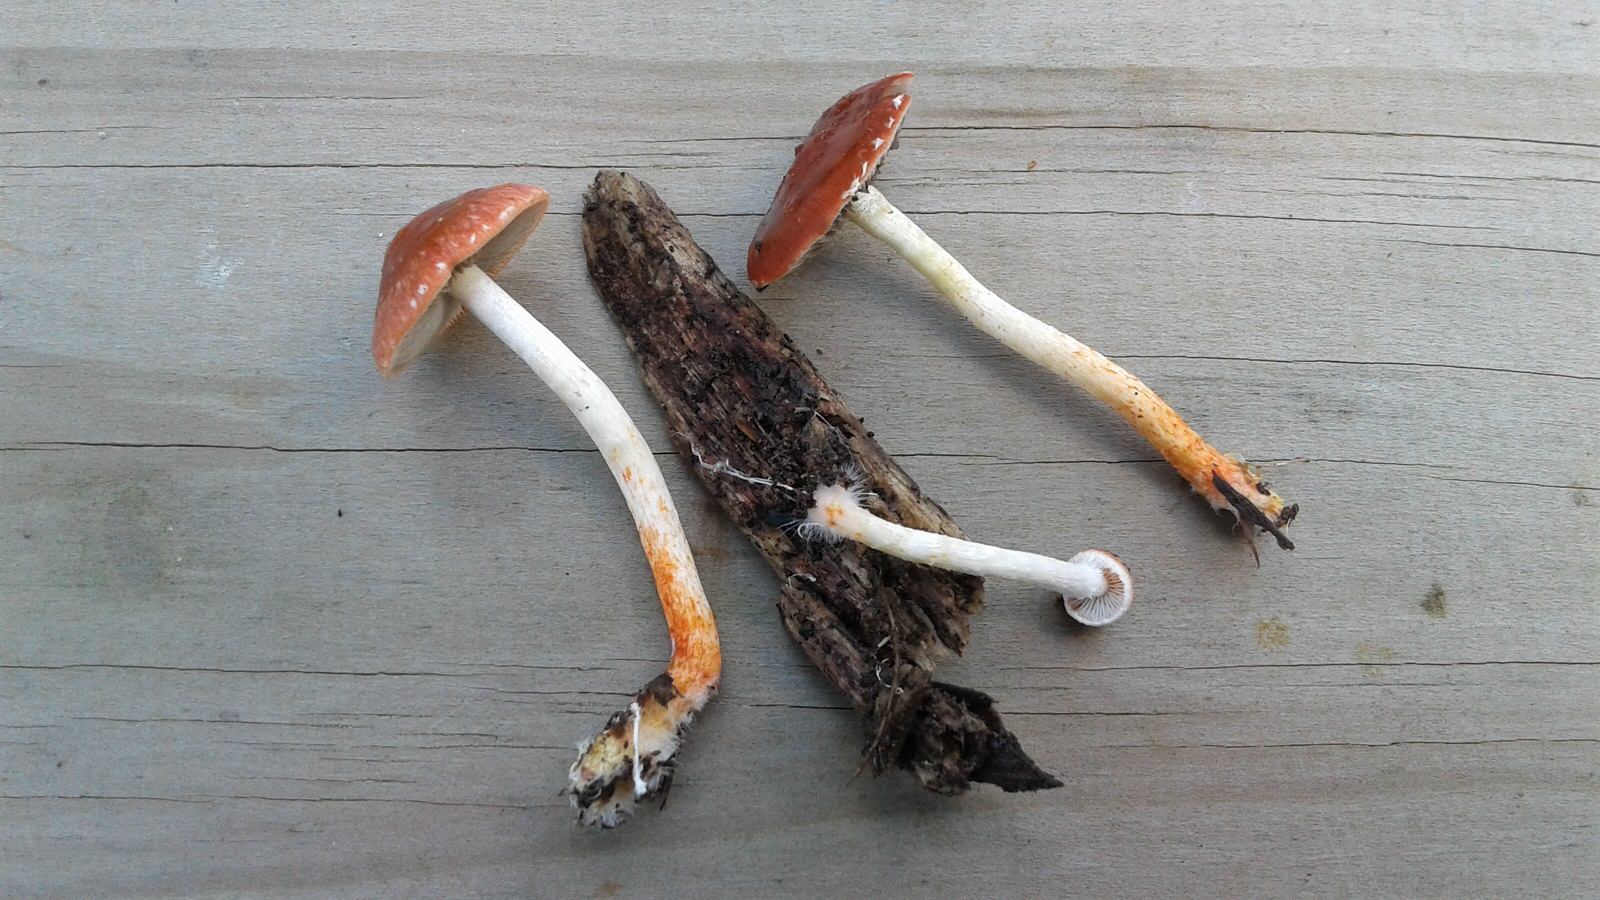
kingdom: Fungi
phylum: Basidiomycota
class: Agaricomycetes
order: Agaricales
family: Strophariaceae
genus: Leratiomyces
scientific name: Leratiomyces ceres
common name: Redlead roundhead
